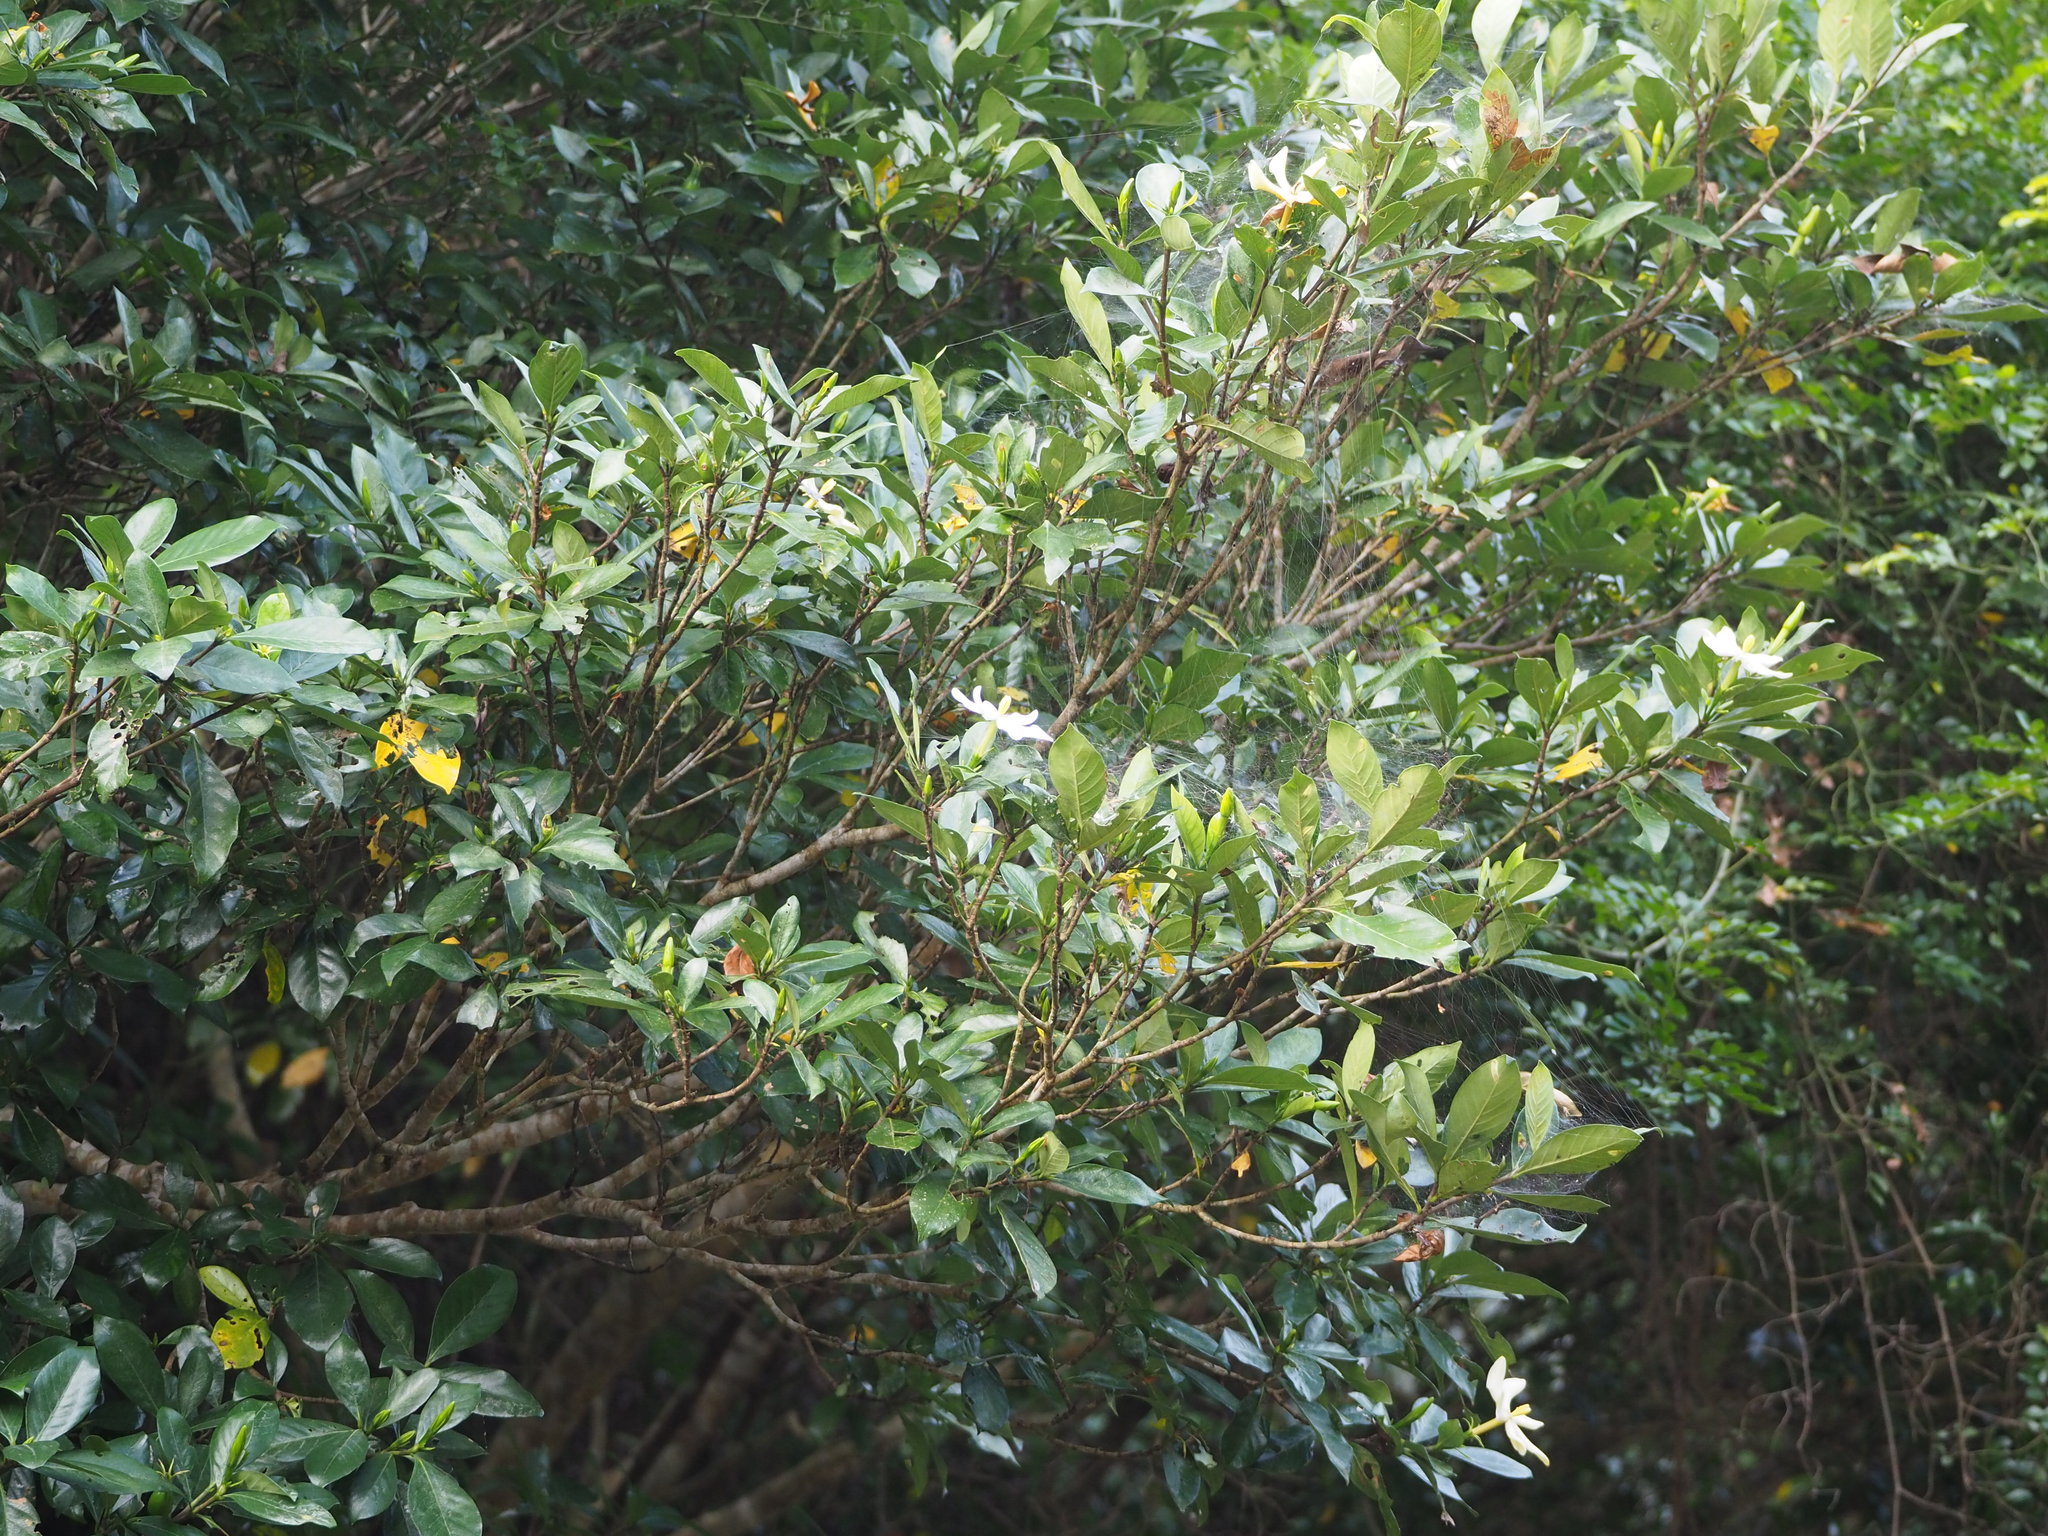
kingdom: Plantae
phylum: Tracheophyta
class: Magnoliopsida
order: Gentianales
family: Rubiaceae
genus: Gardenia
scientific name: Gardenia jasminoides
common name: Cape-jasmine
